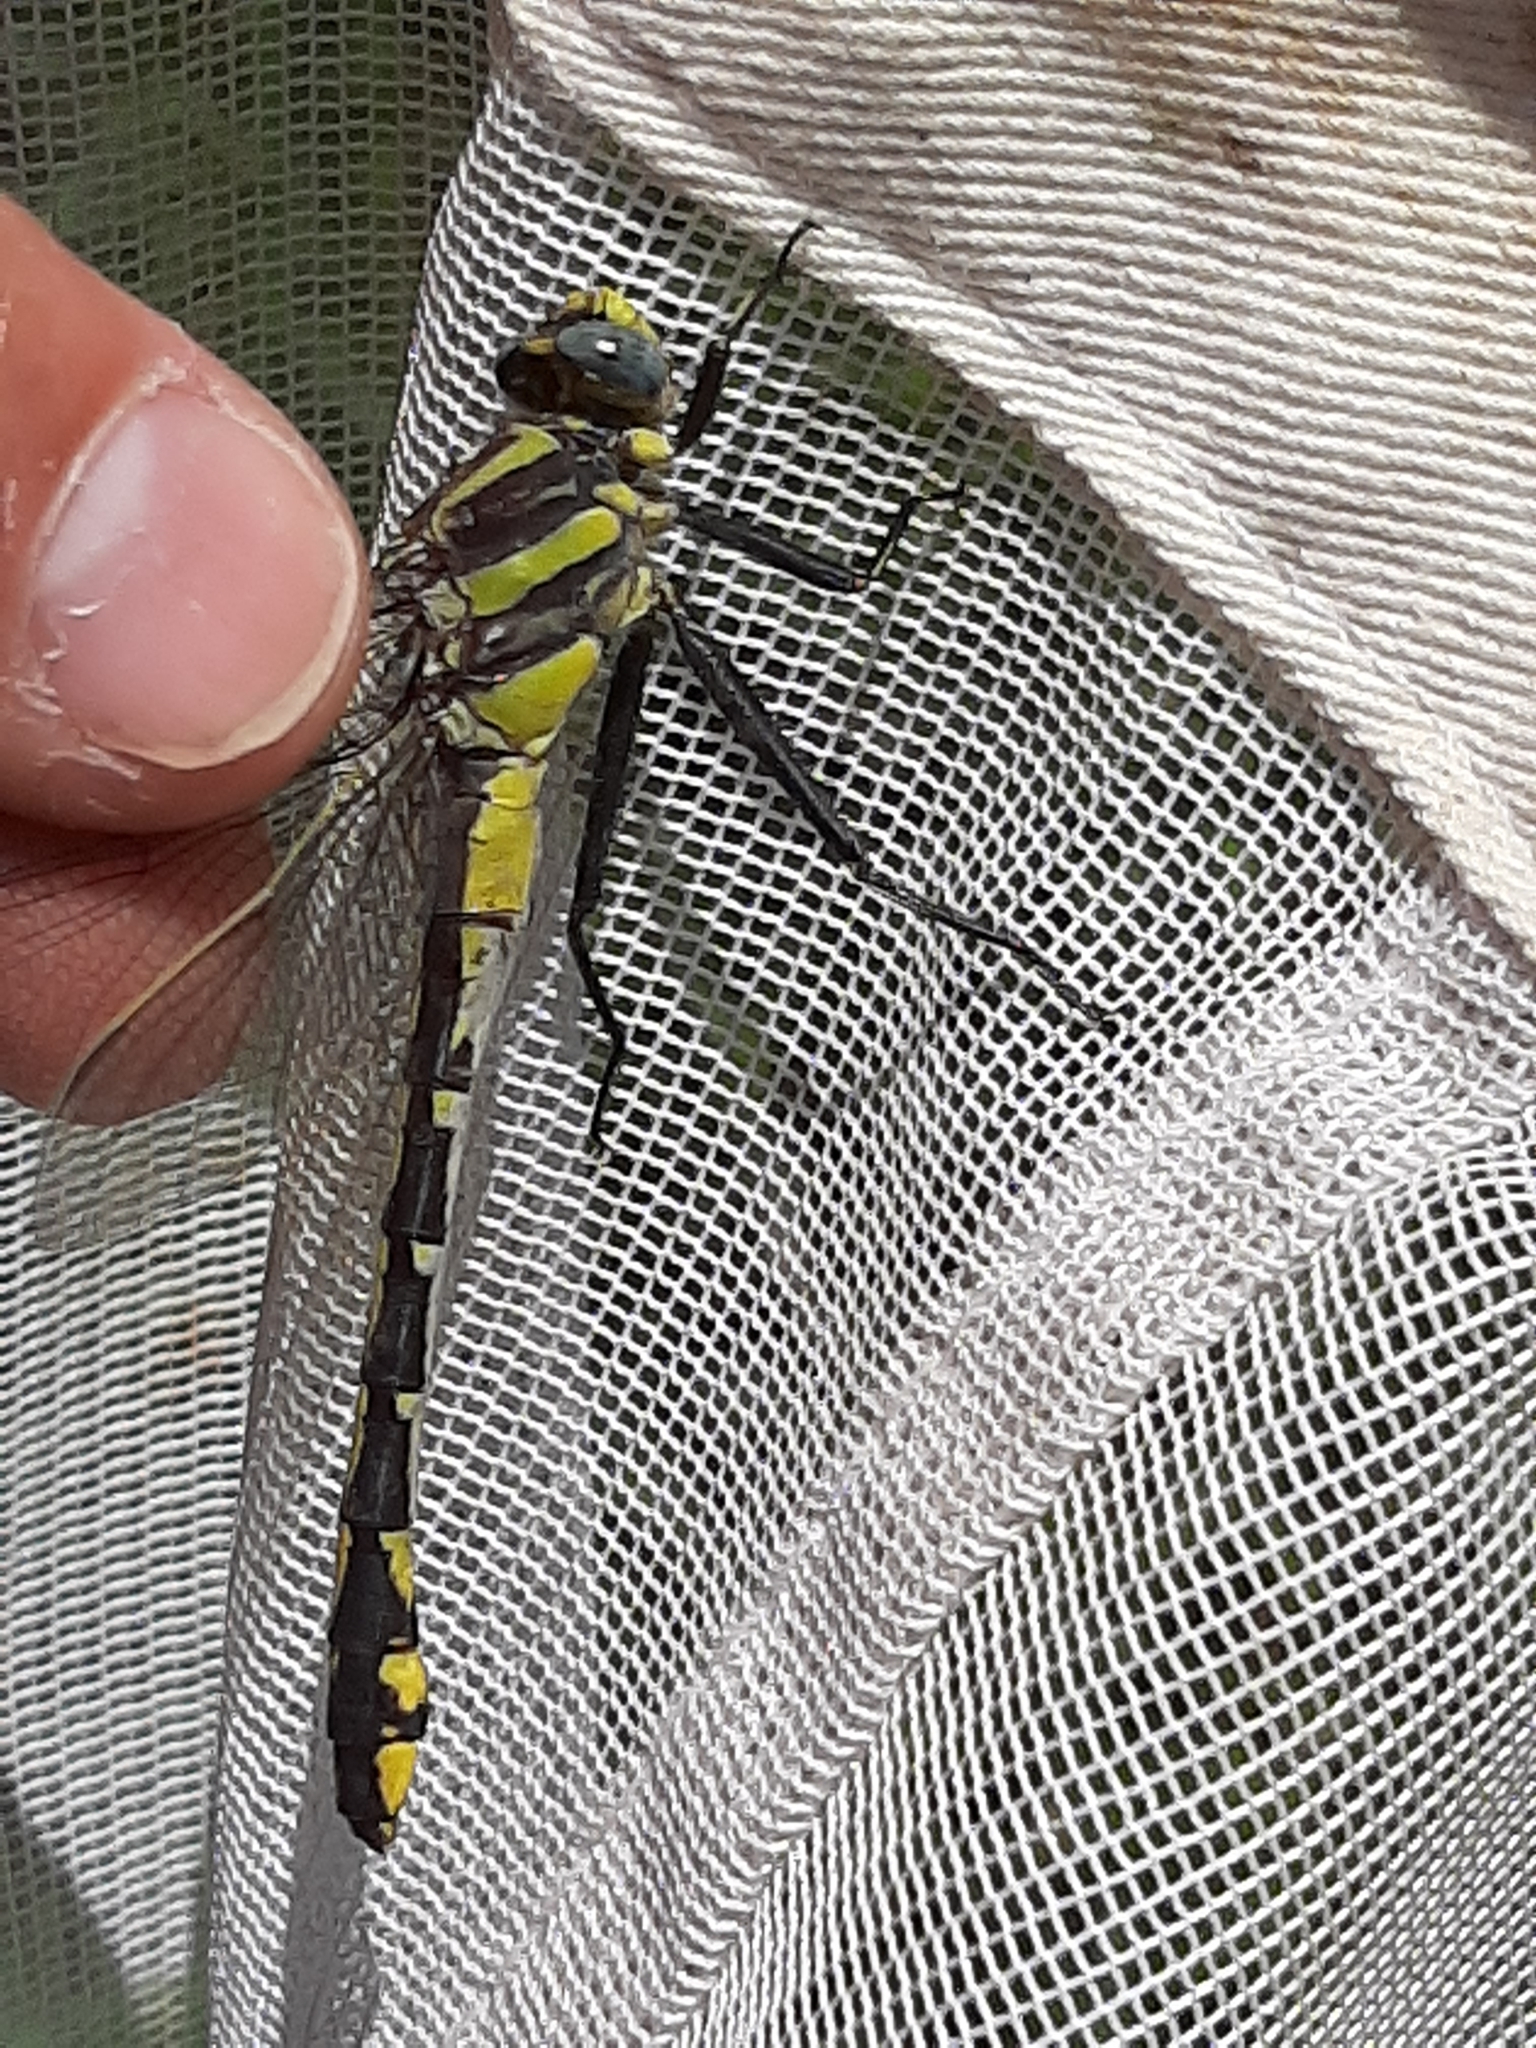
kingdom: Animalia
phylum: Arthropoda
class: Insecta
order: Odonata
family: Gomphidae
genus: Gomphurus
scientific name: Gomphurus externus
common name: Plains clubtail
